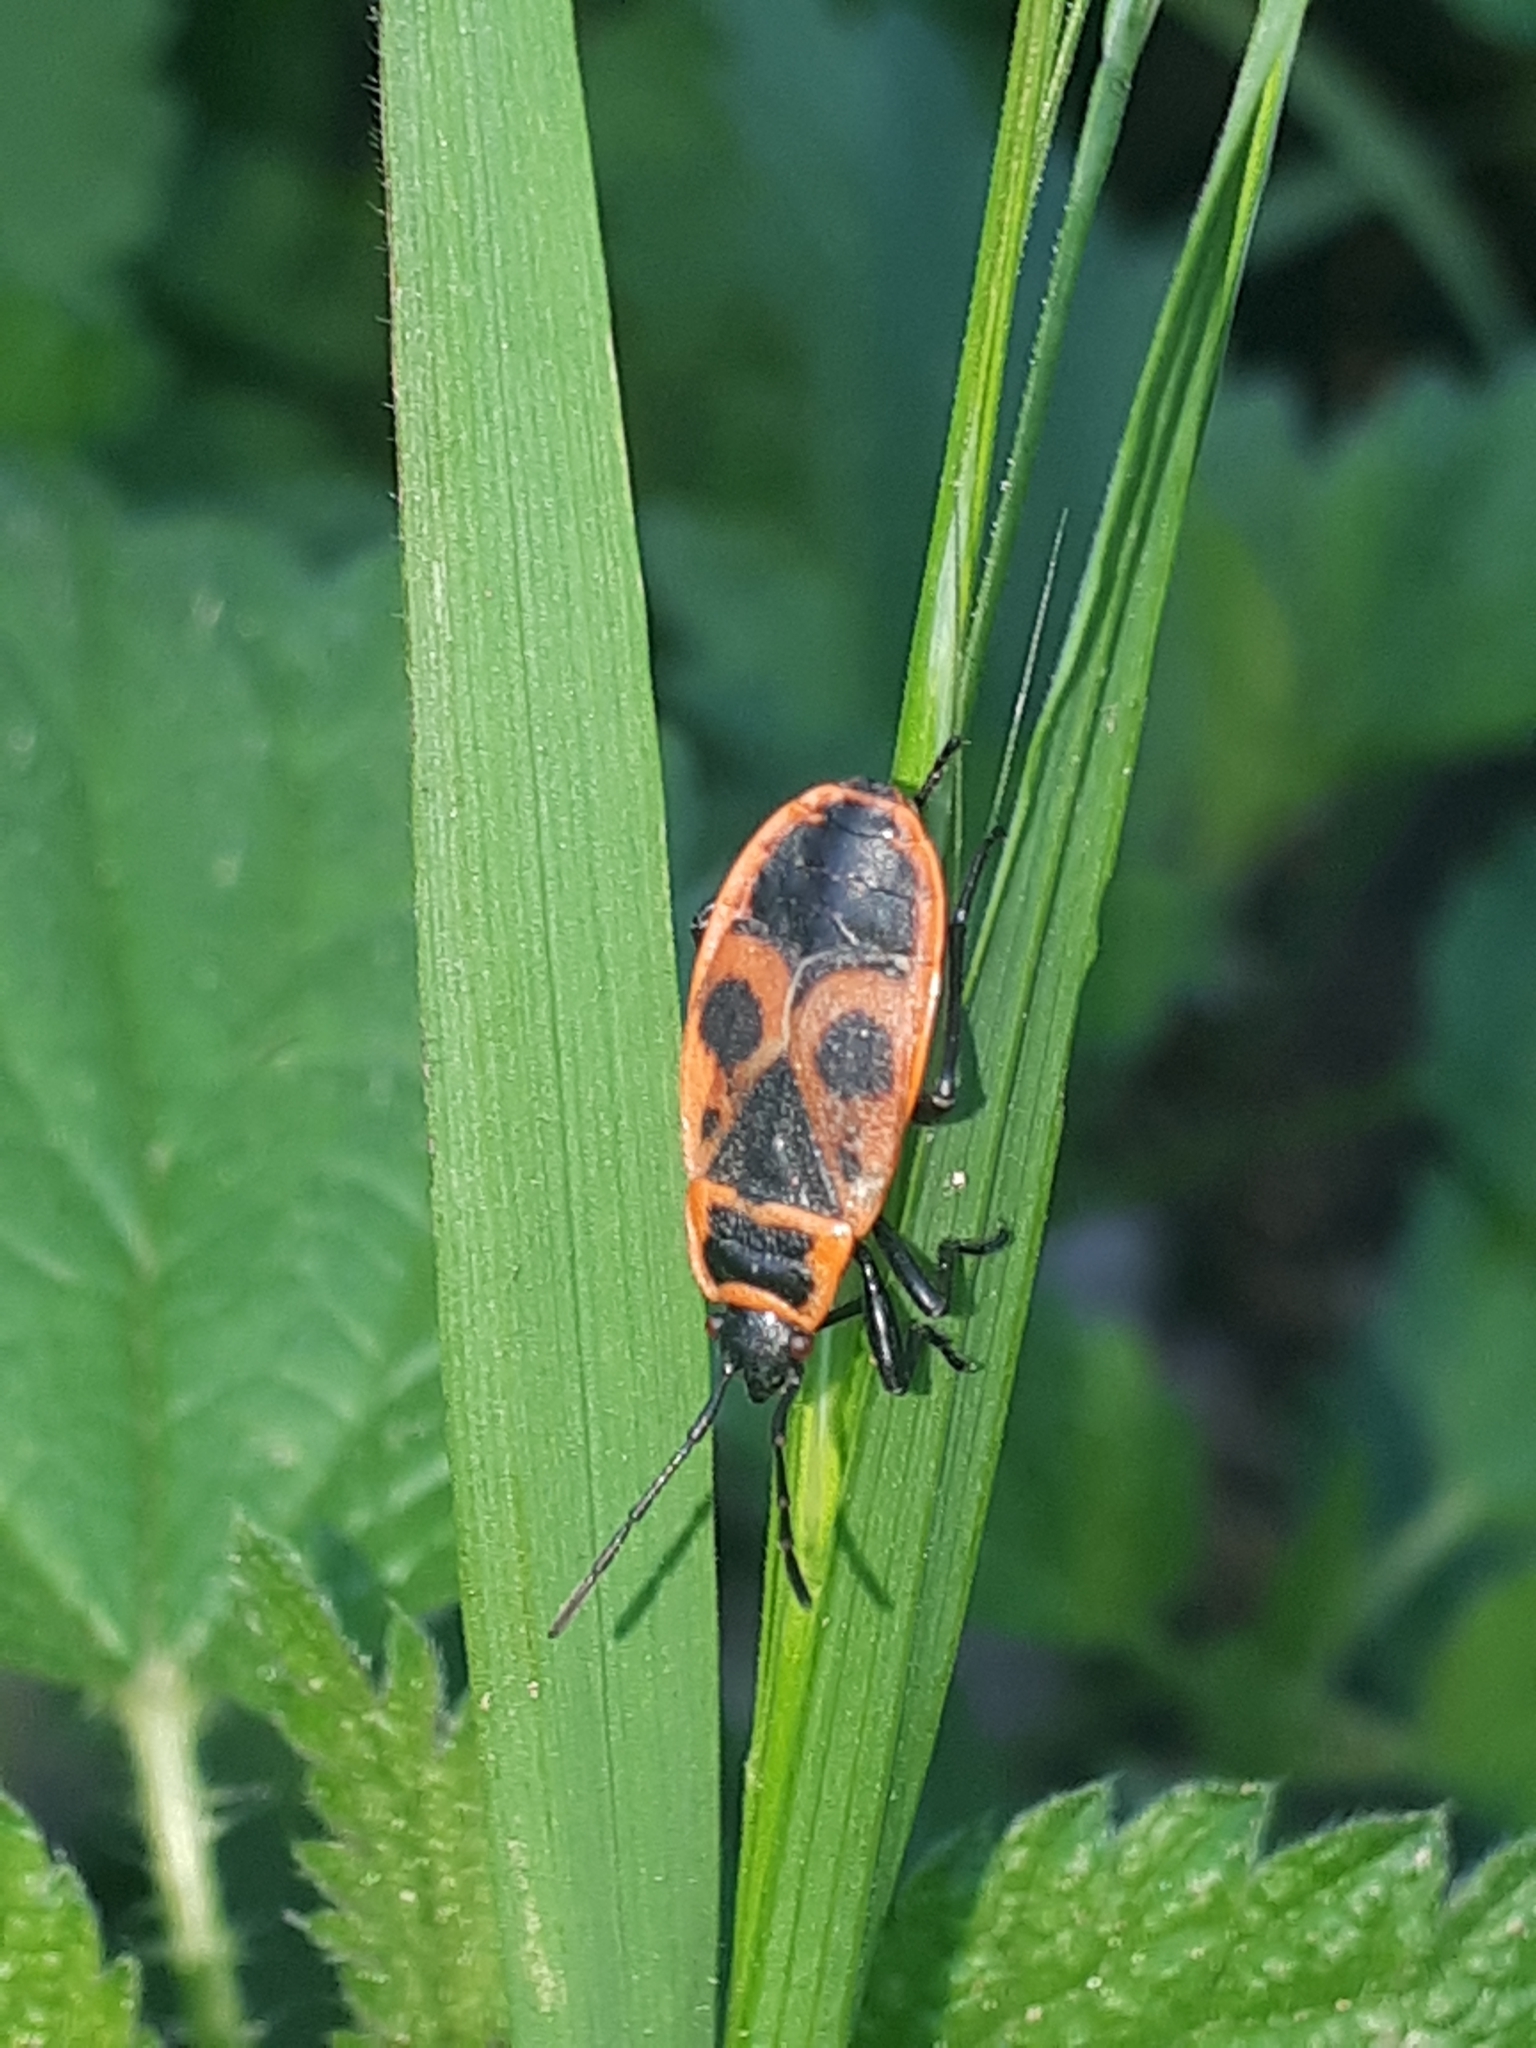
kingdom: Animalia
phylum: Arthropoda
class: Insecta
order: Hemiptera
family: Pyrrhocoridae
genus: Pyrrhocoris
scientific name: Pyrrhocoris apterus
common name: Firebug
